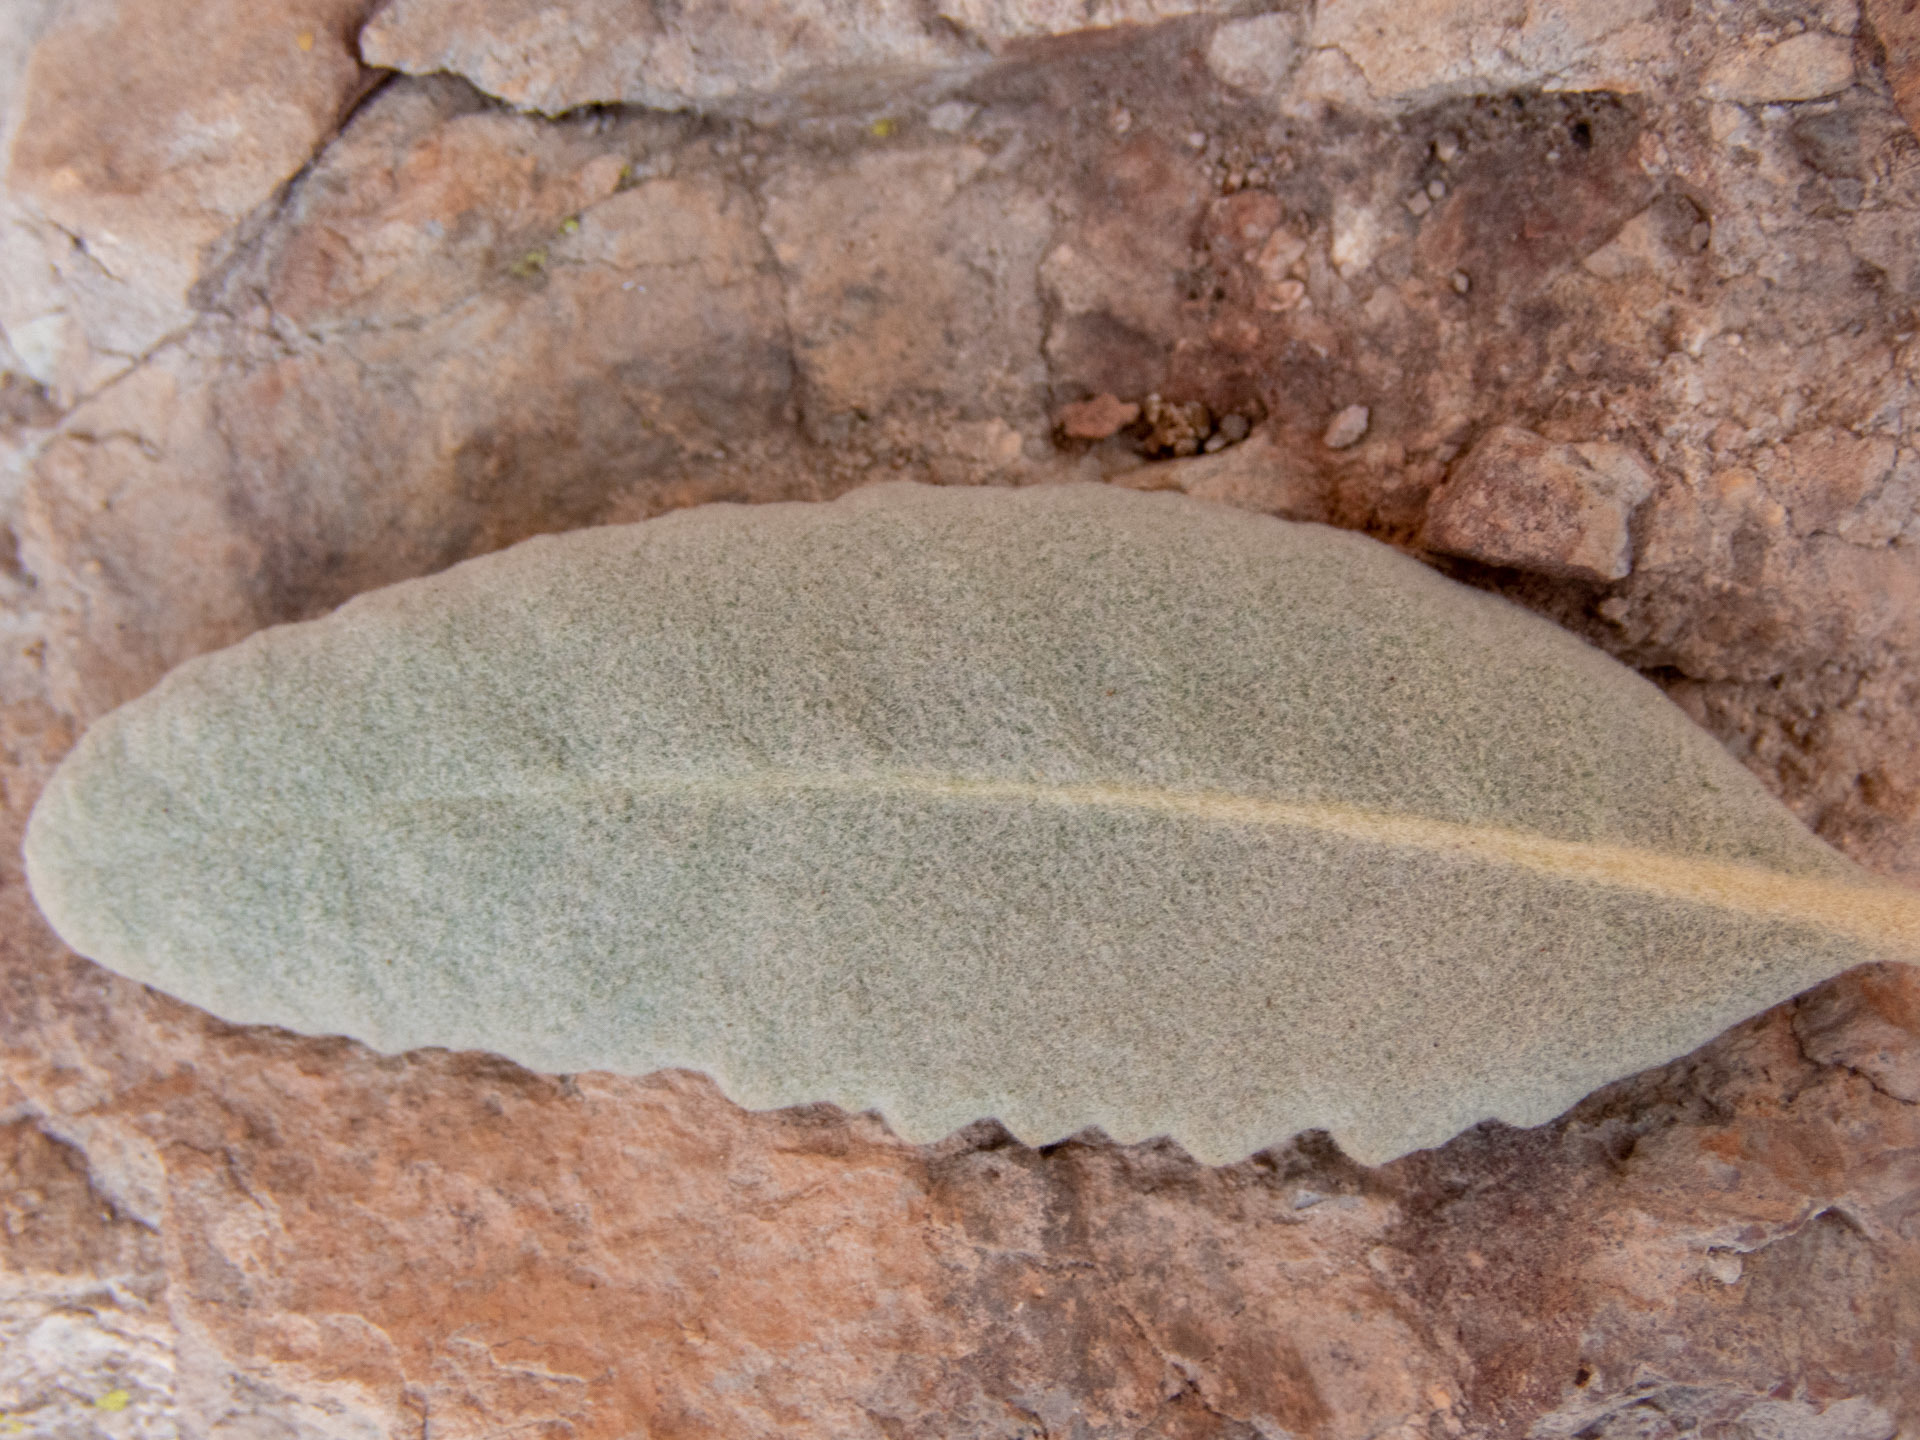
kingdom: Plantae
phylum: Tracheophyta
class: Magnoliopsida
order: Boraginales
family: Namaceae
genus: Eriodictyon
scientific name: Eriodictyon tomentosum
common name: Woolly yerba-santa
